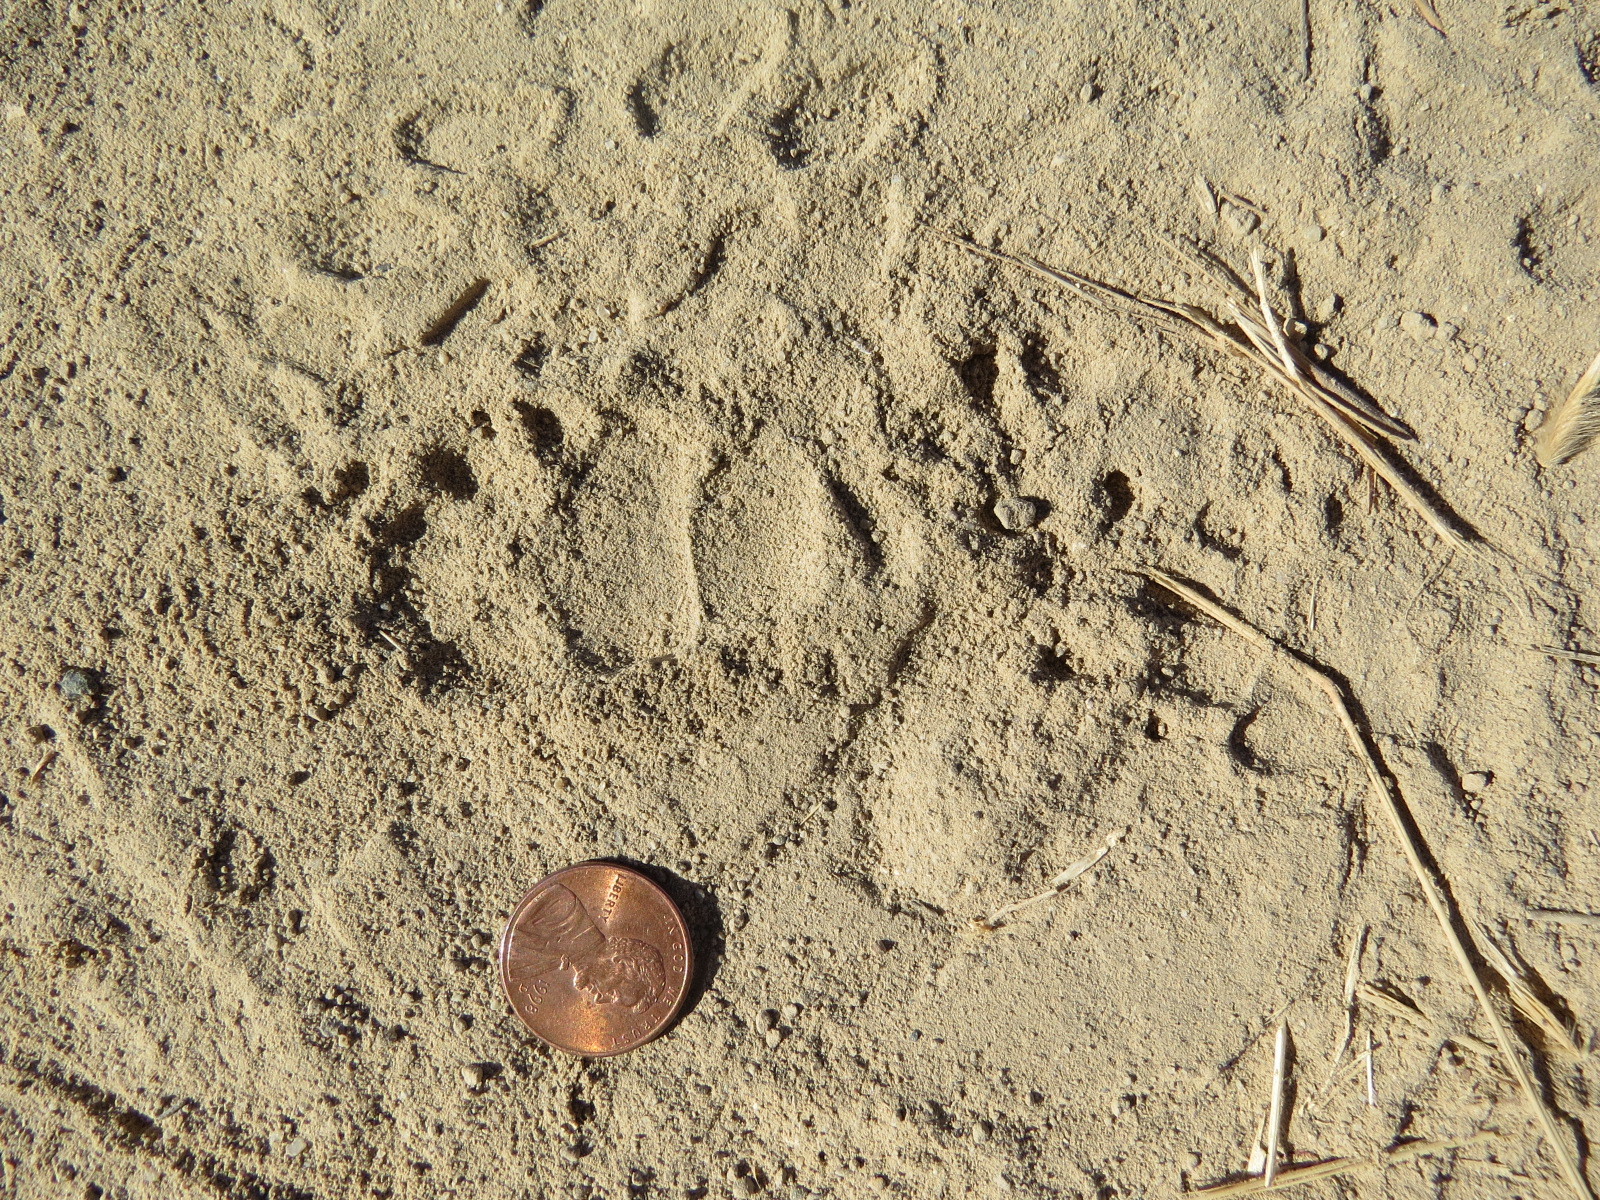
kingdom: Animalia
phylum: Chordata
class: Mammalia
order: Carnivora
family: Mephitidae
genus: Mephitis
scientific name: Mephitis mephitis
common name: Striped skunk
